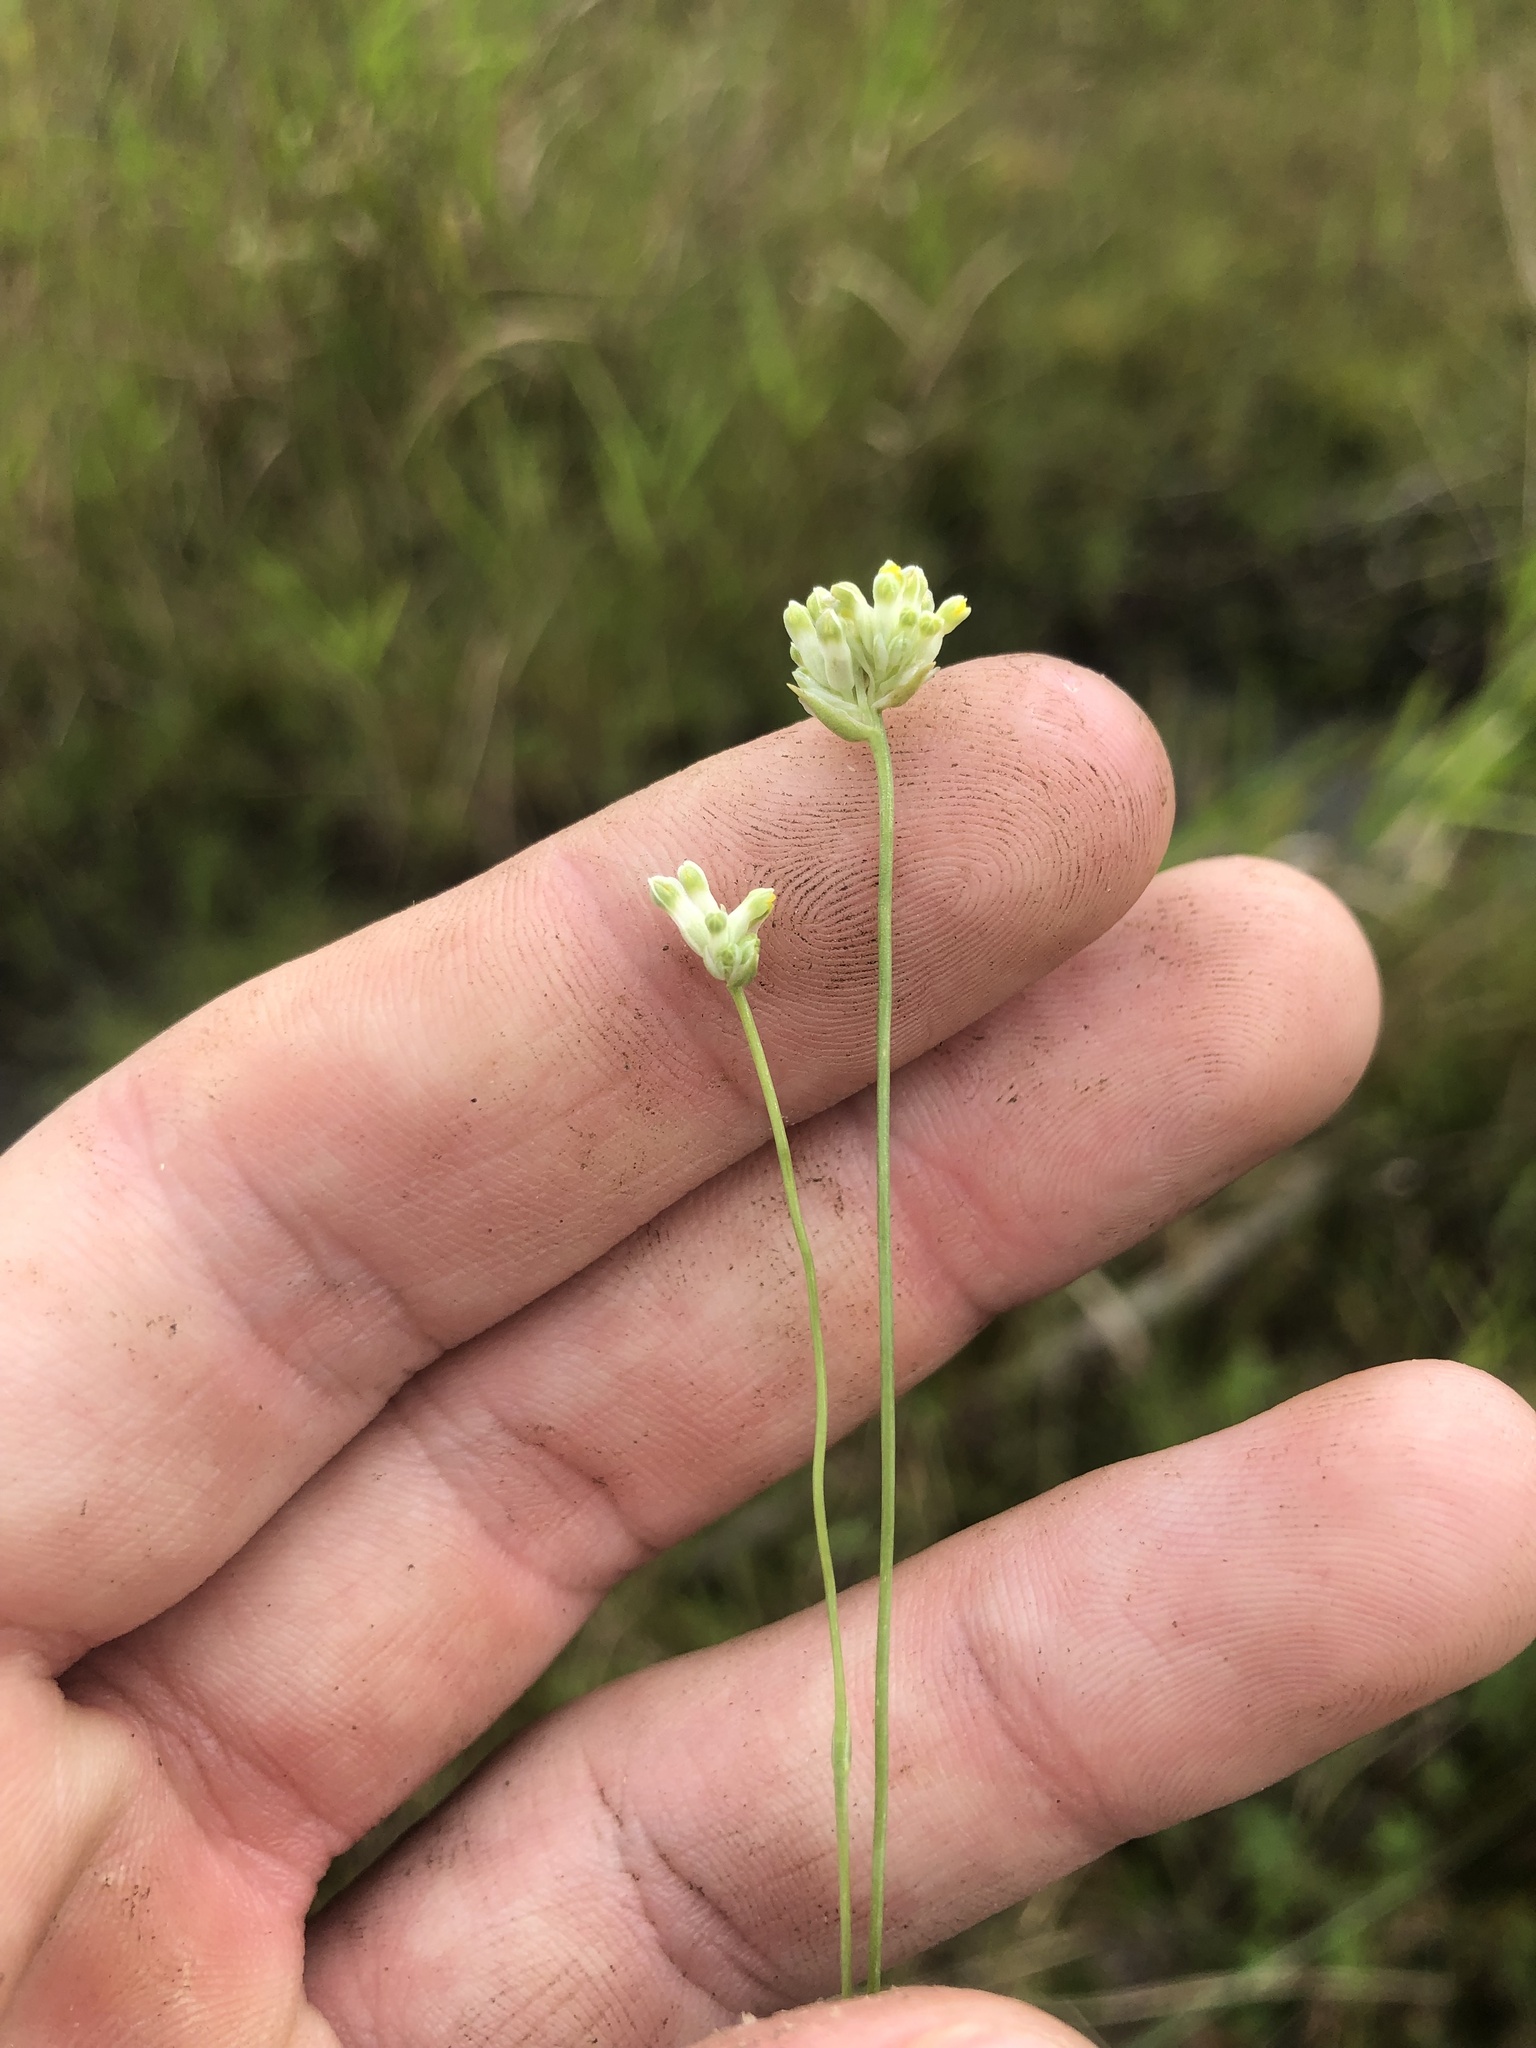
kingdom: Plantae
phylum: Tracheophyta
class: Liliopsida
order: Dioscoreales
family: Burmanniaceae
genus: Burmannia
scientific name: Burmannia capitata
